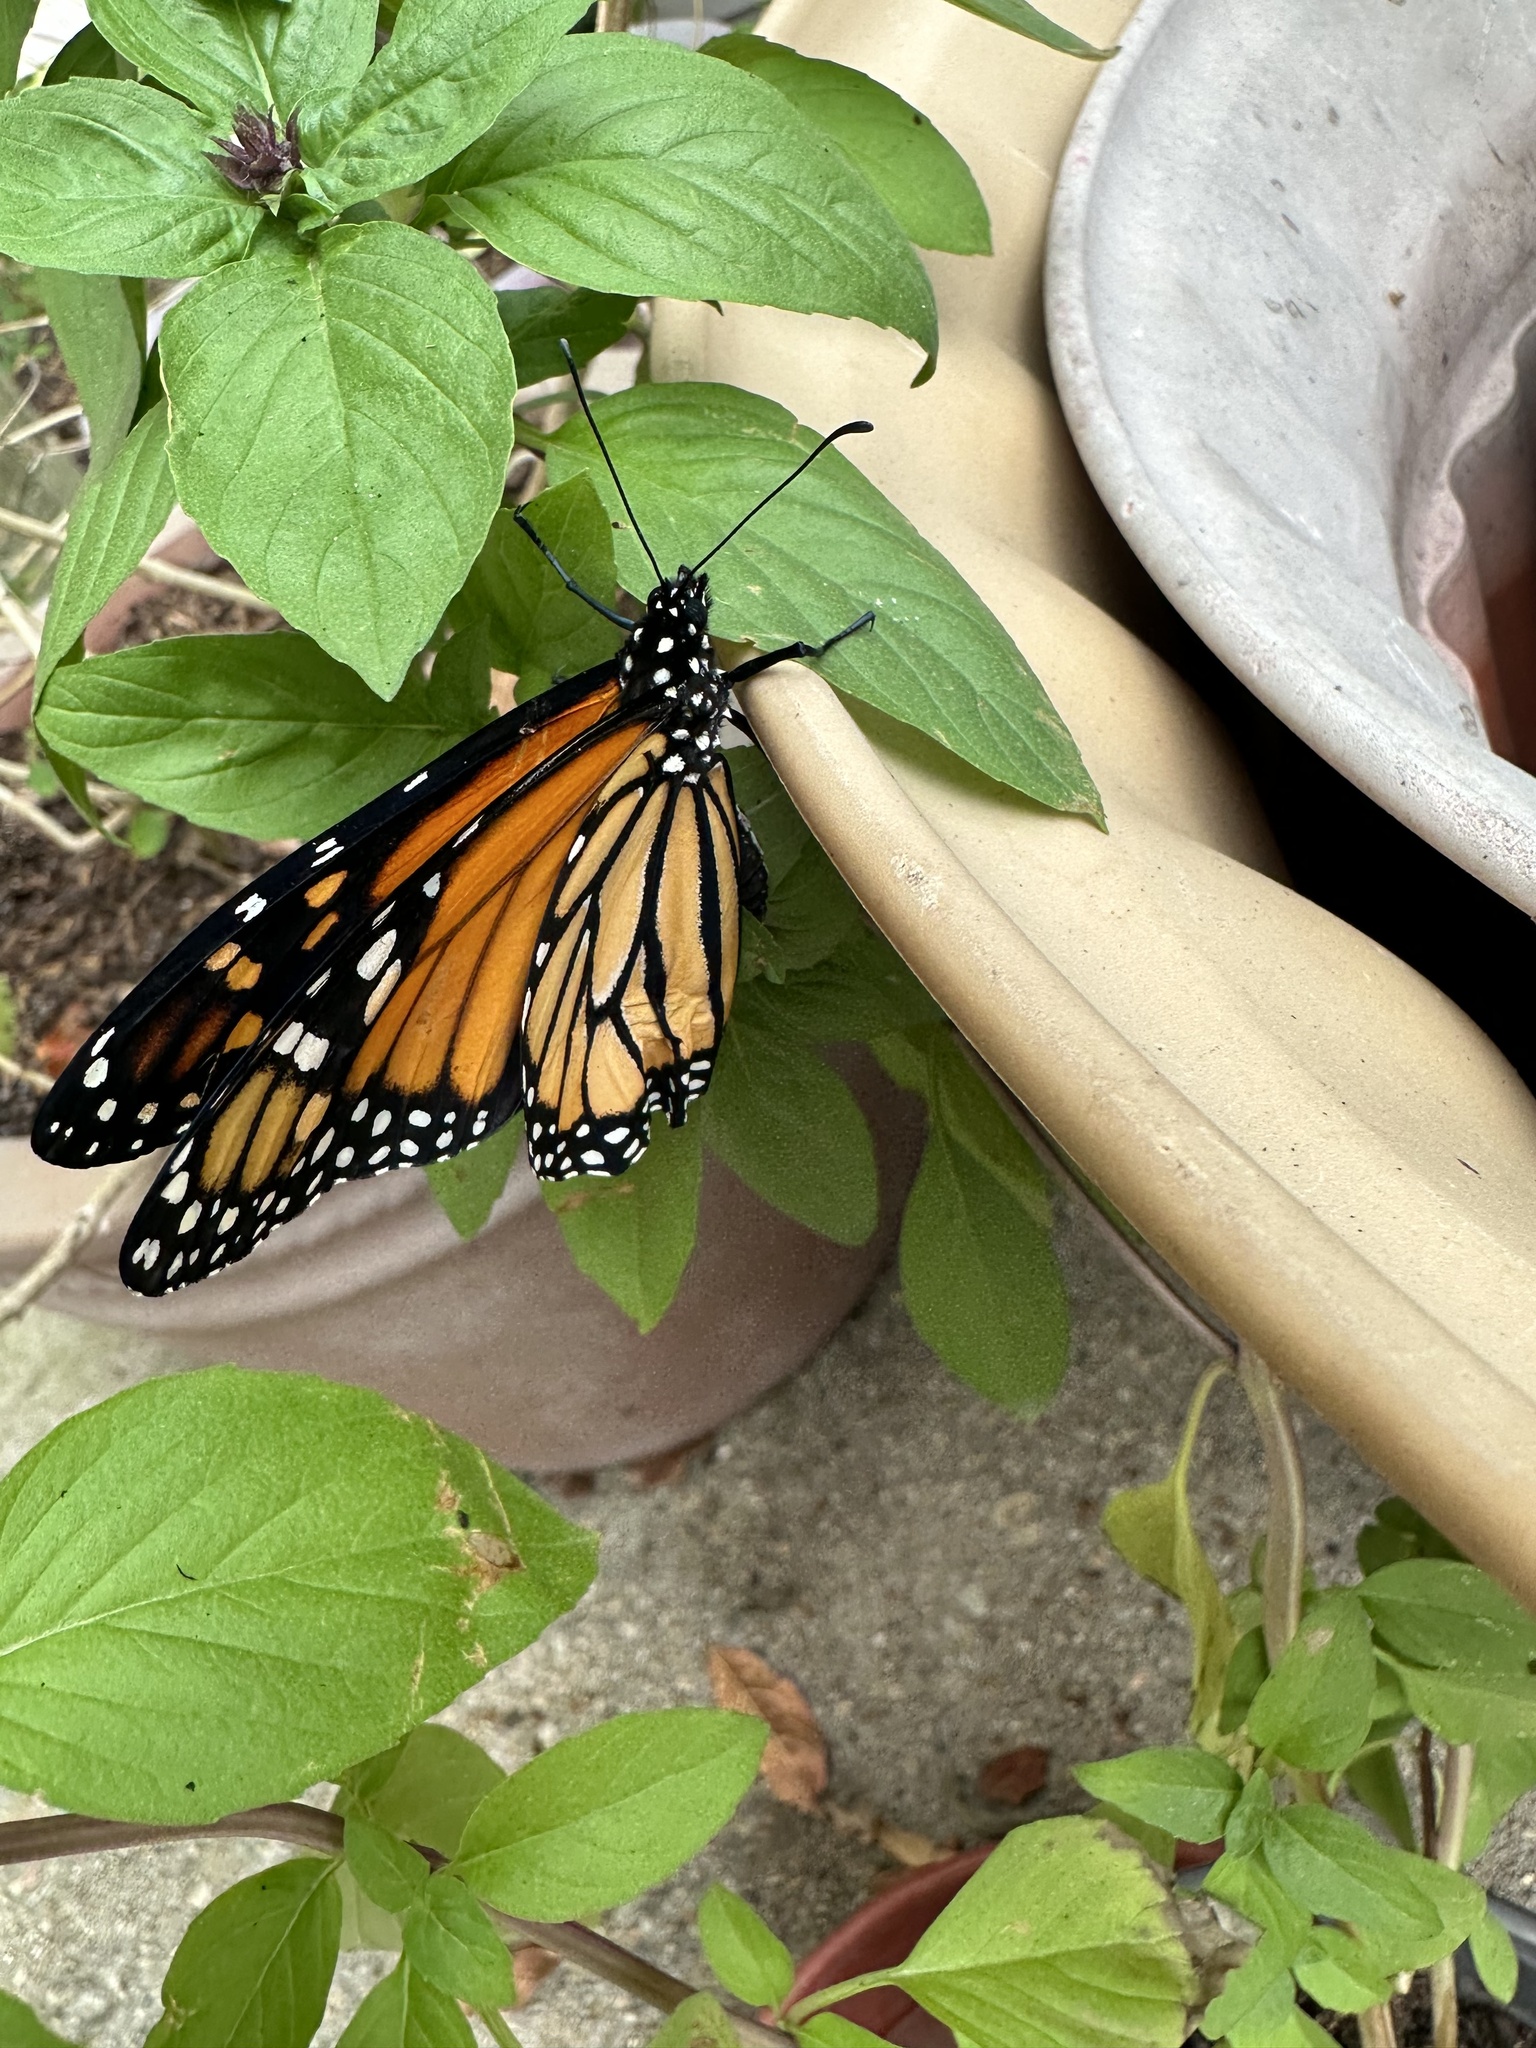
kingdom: Animalia
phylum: Arthropoda
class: Insecta
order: Lepidoptera
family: Nymphalidae
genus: Danaus
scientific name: Danaus plexippus
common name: Monarch
